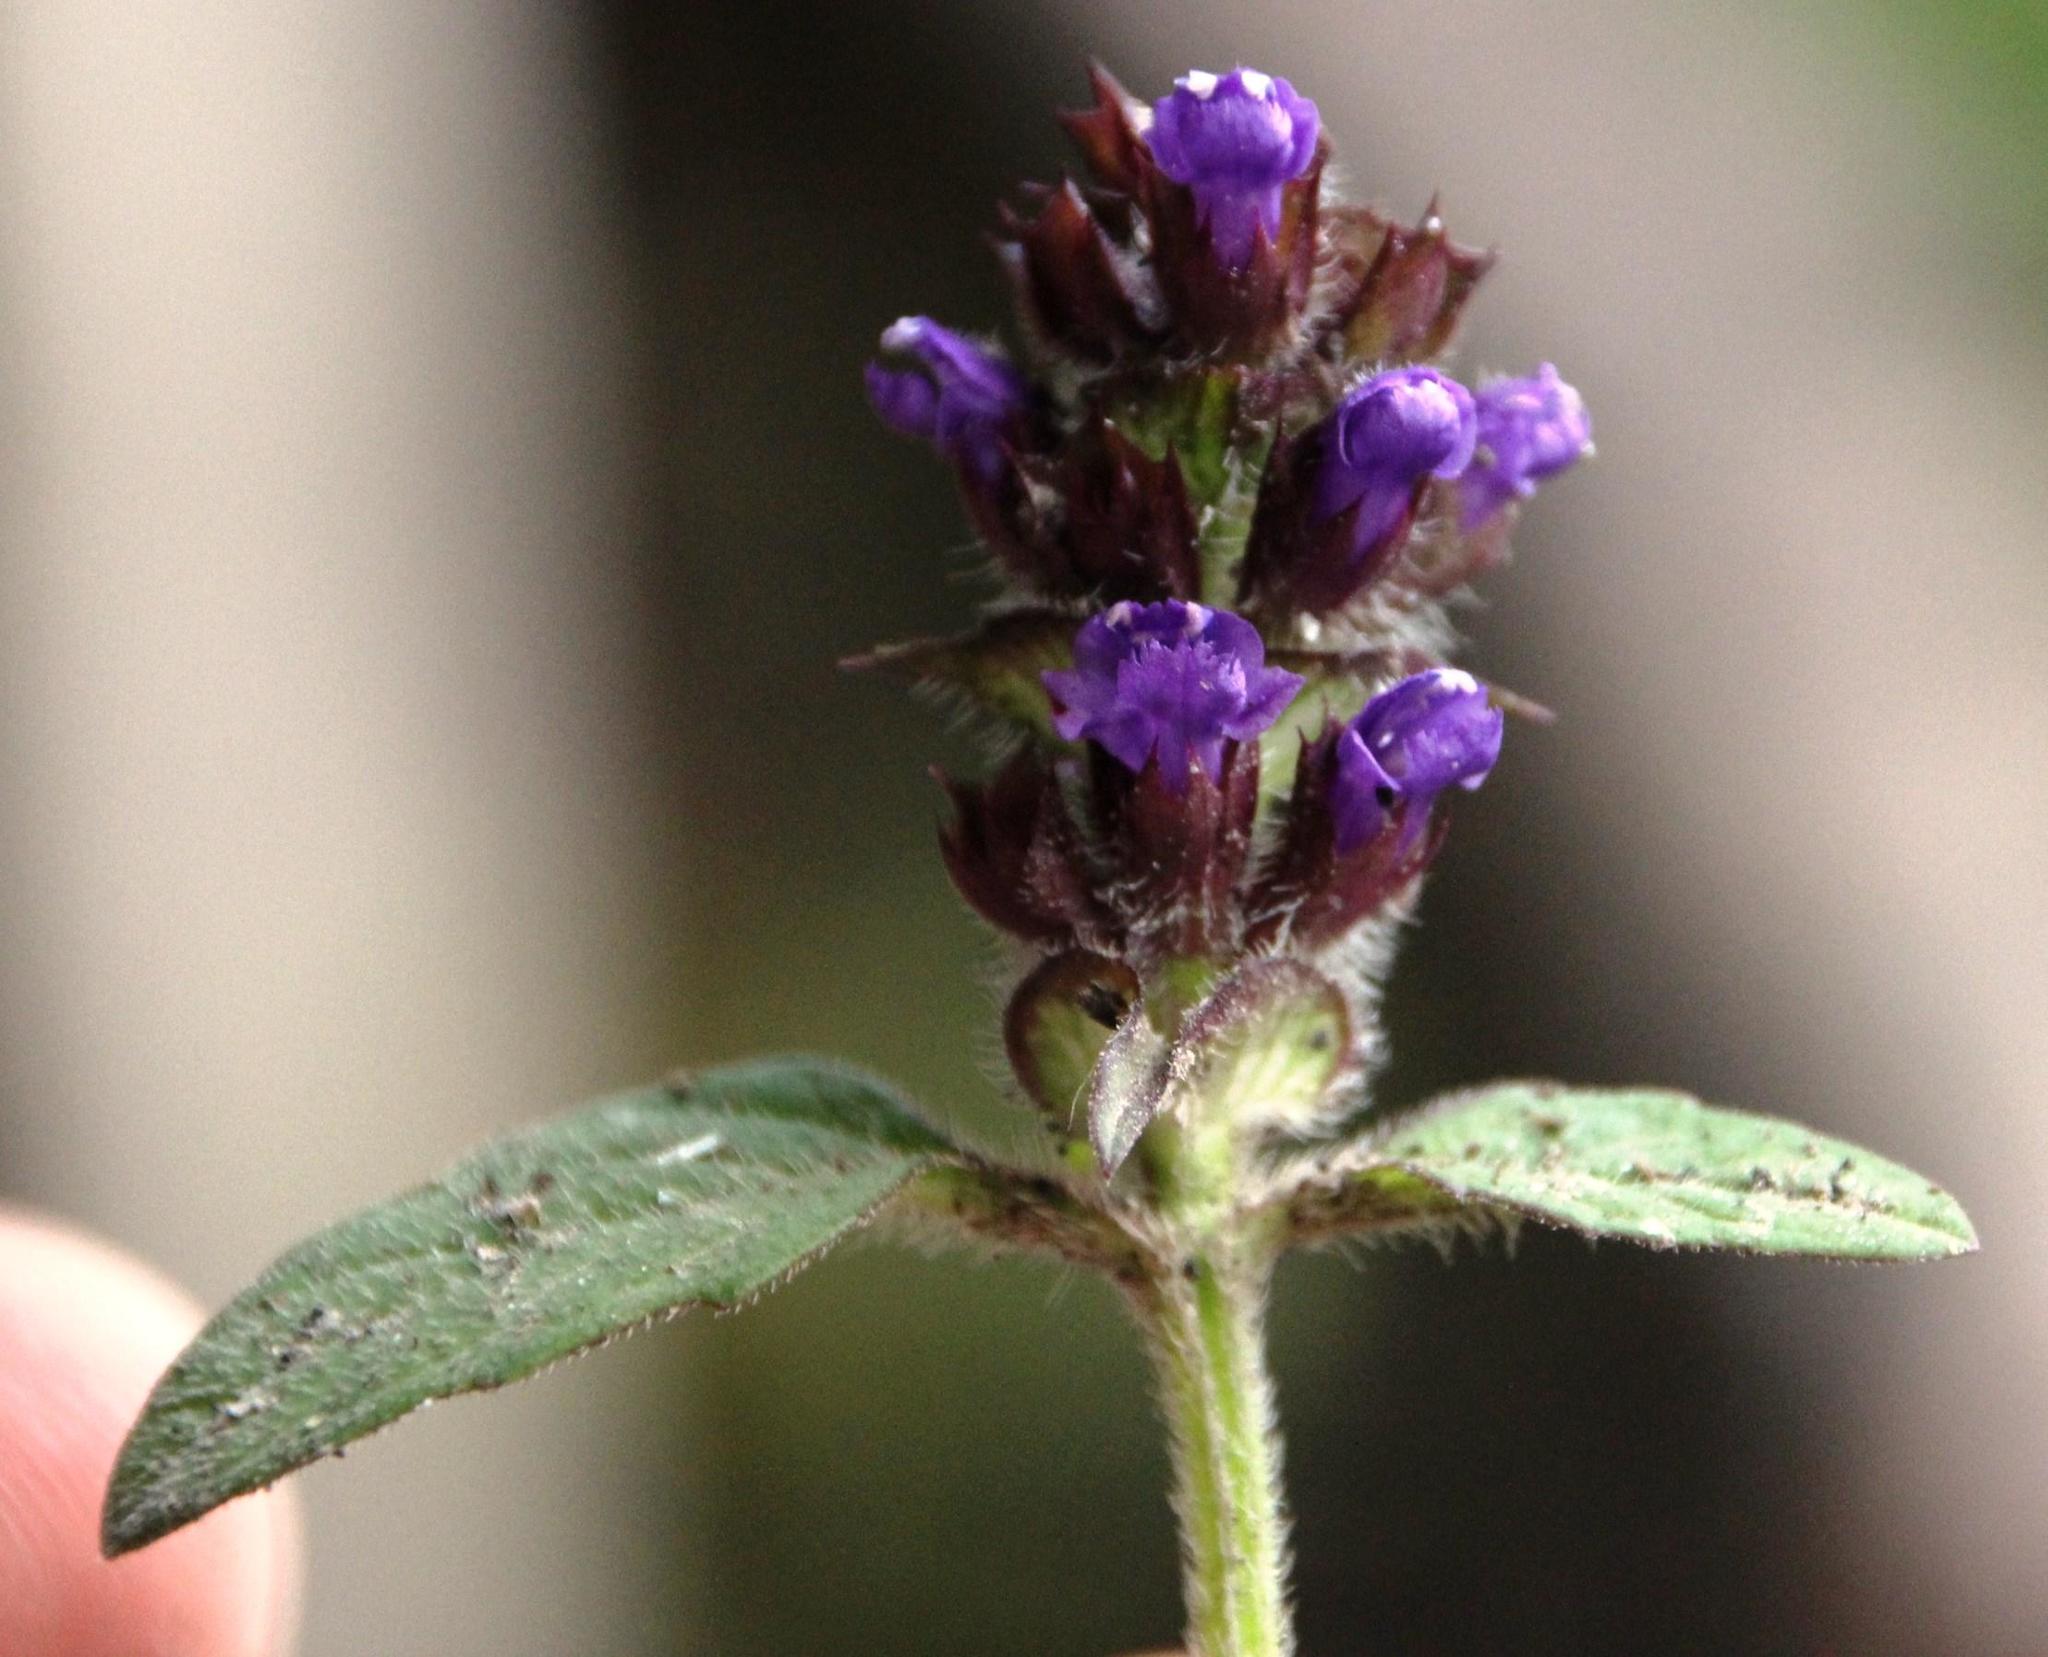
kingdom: Plantae
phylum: Tracheophyta
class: Magnoliopsida
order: Lamiales
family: Lamiaceae
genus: Prunella
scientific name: Prunella vulgaris
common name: Heal-all
